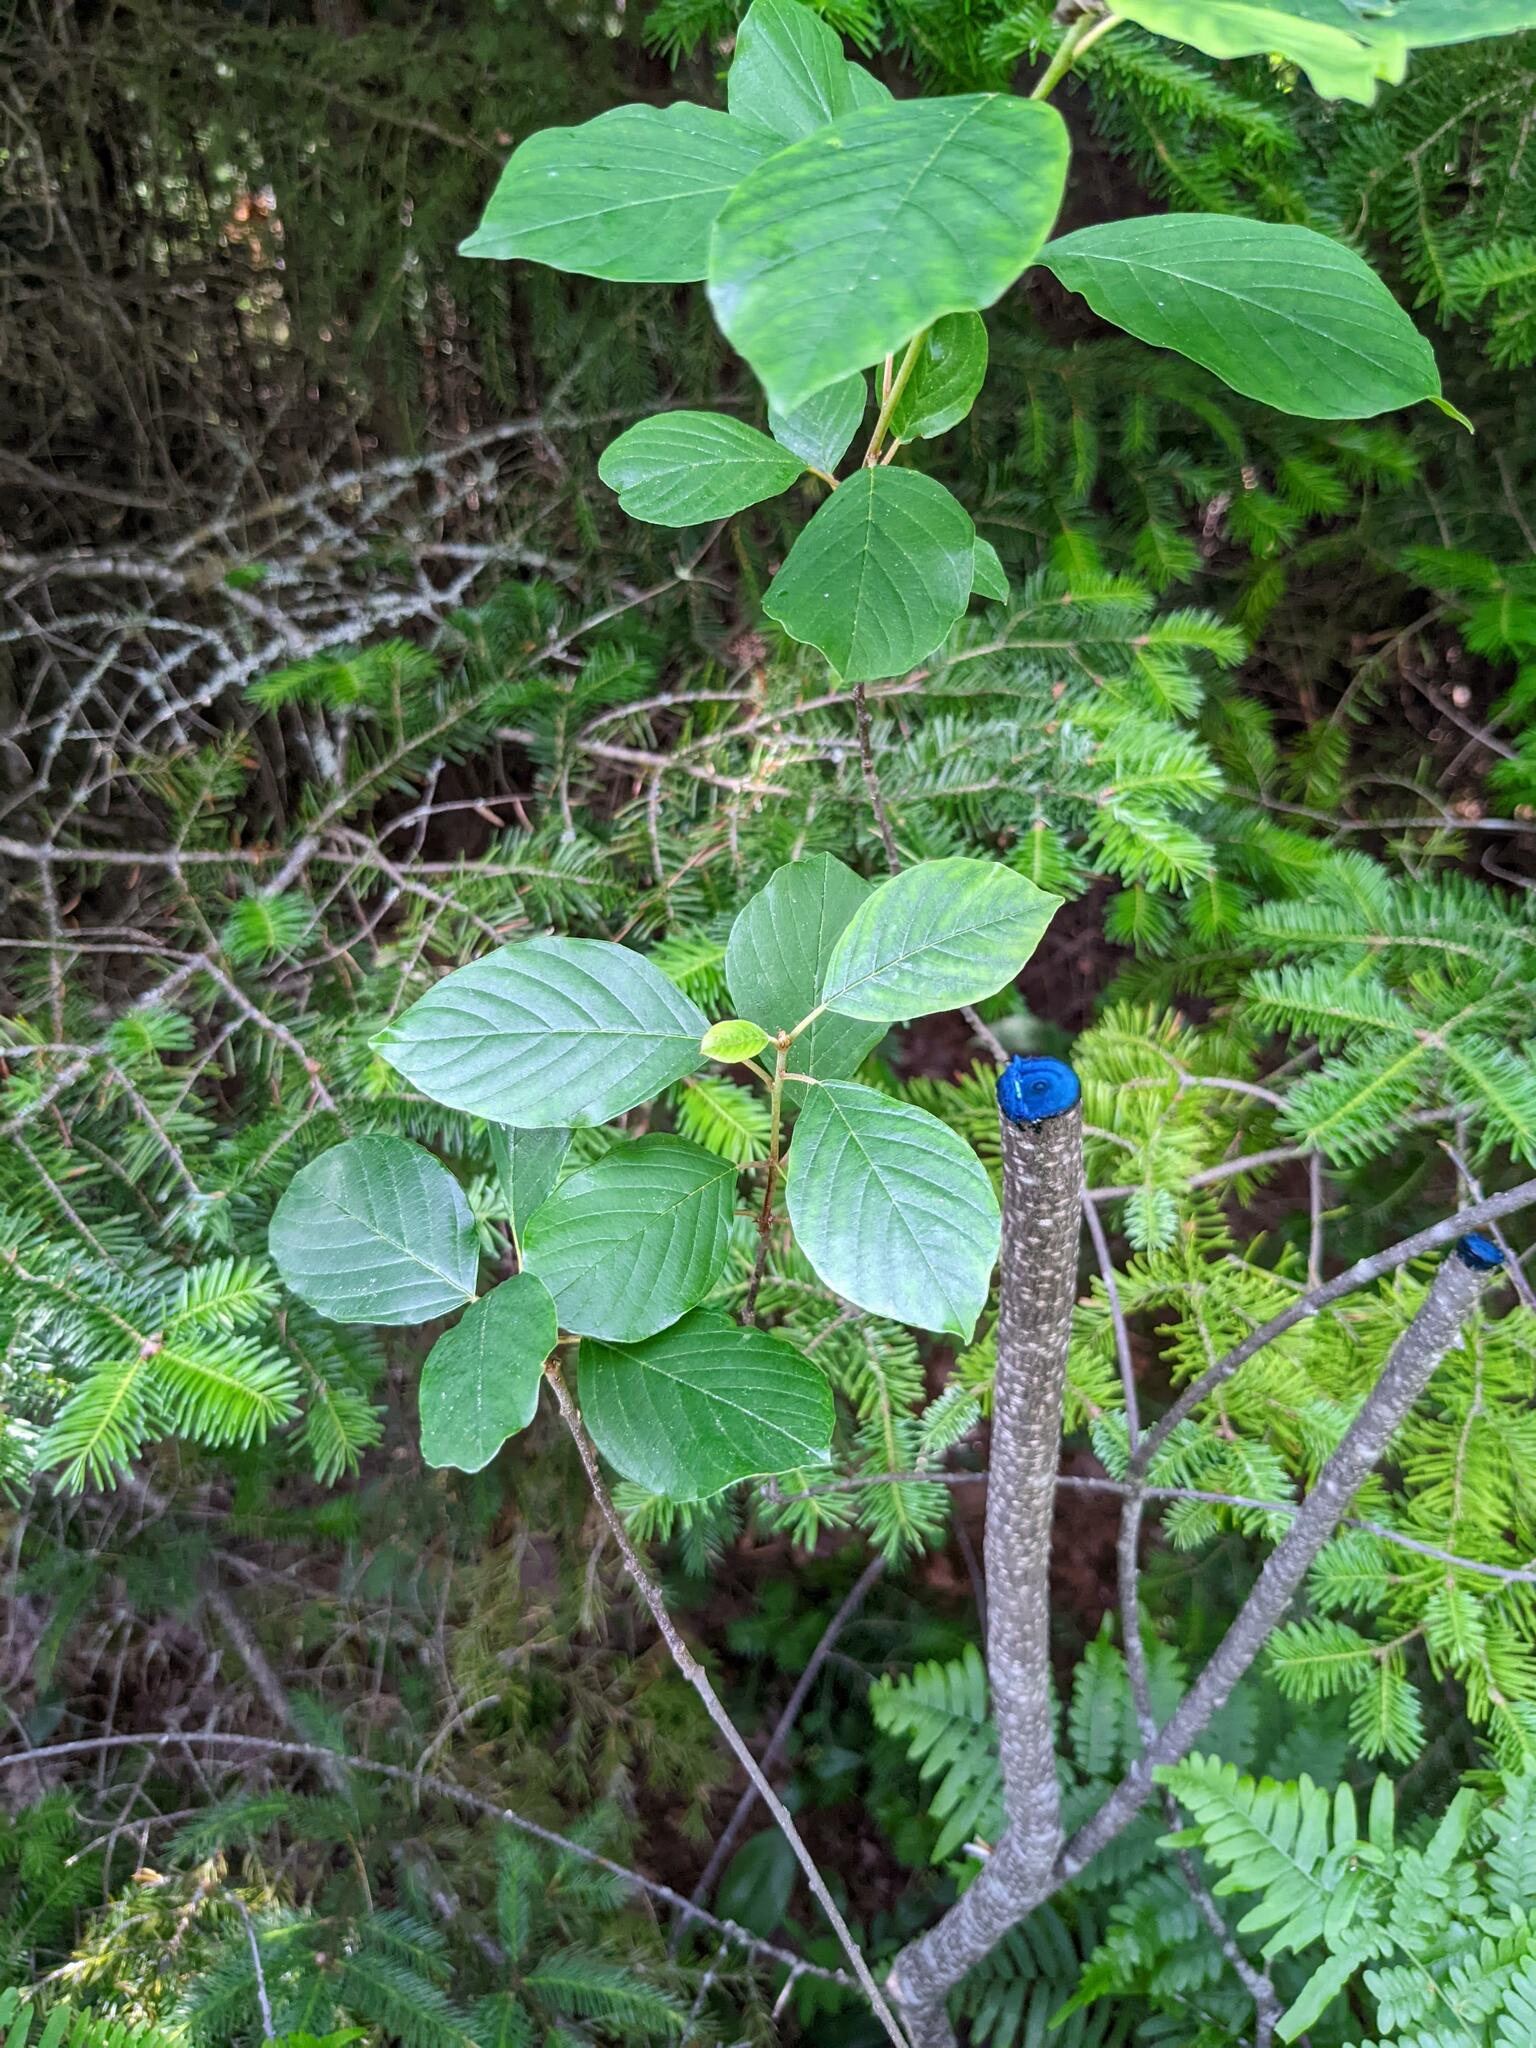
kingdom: Plantae
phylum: Tracheophyta
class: Magnoliopsida
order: Rosales
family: Rhamnaceae
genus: Frangula
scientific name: Frangula alnus
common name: Alder buckthorn
